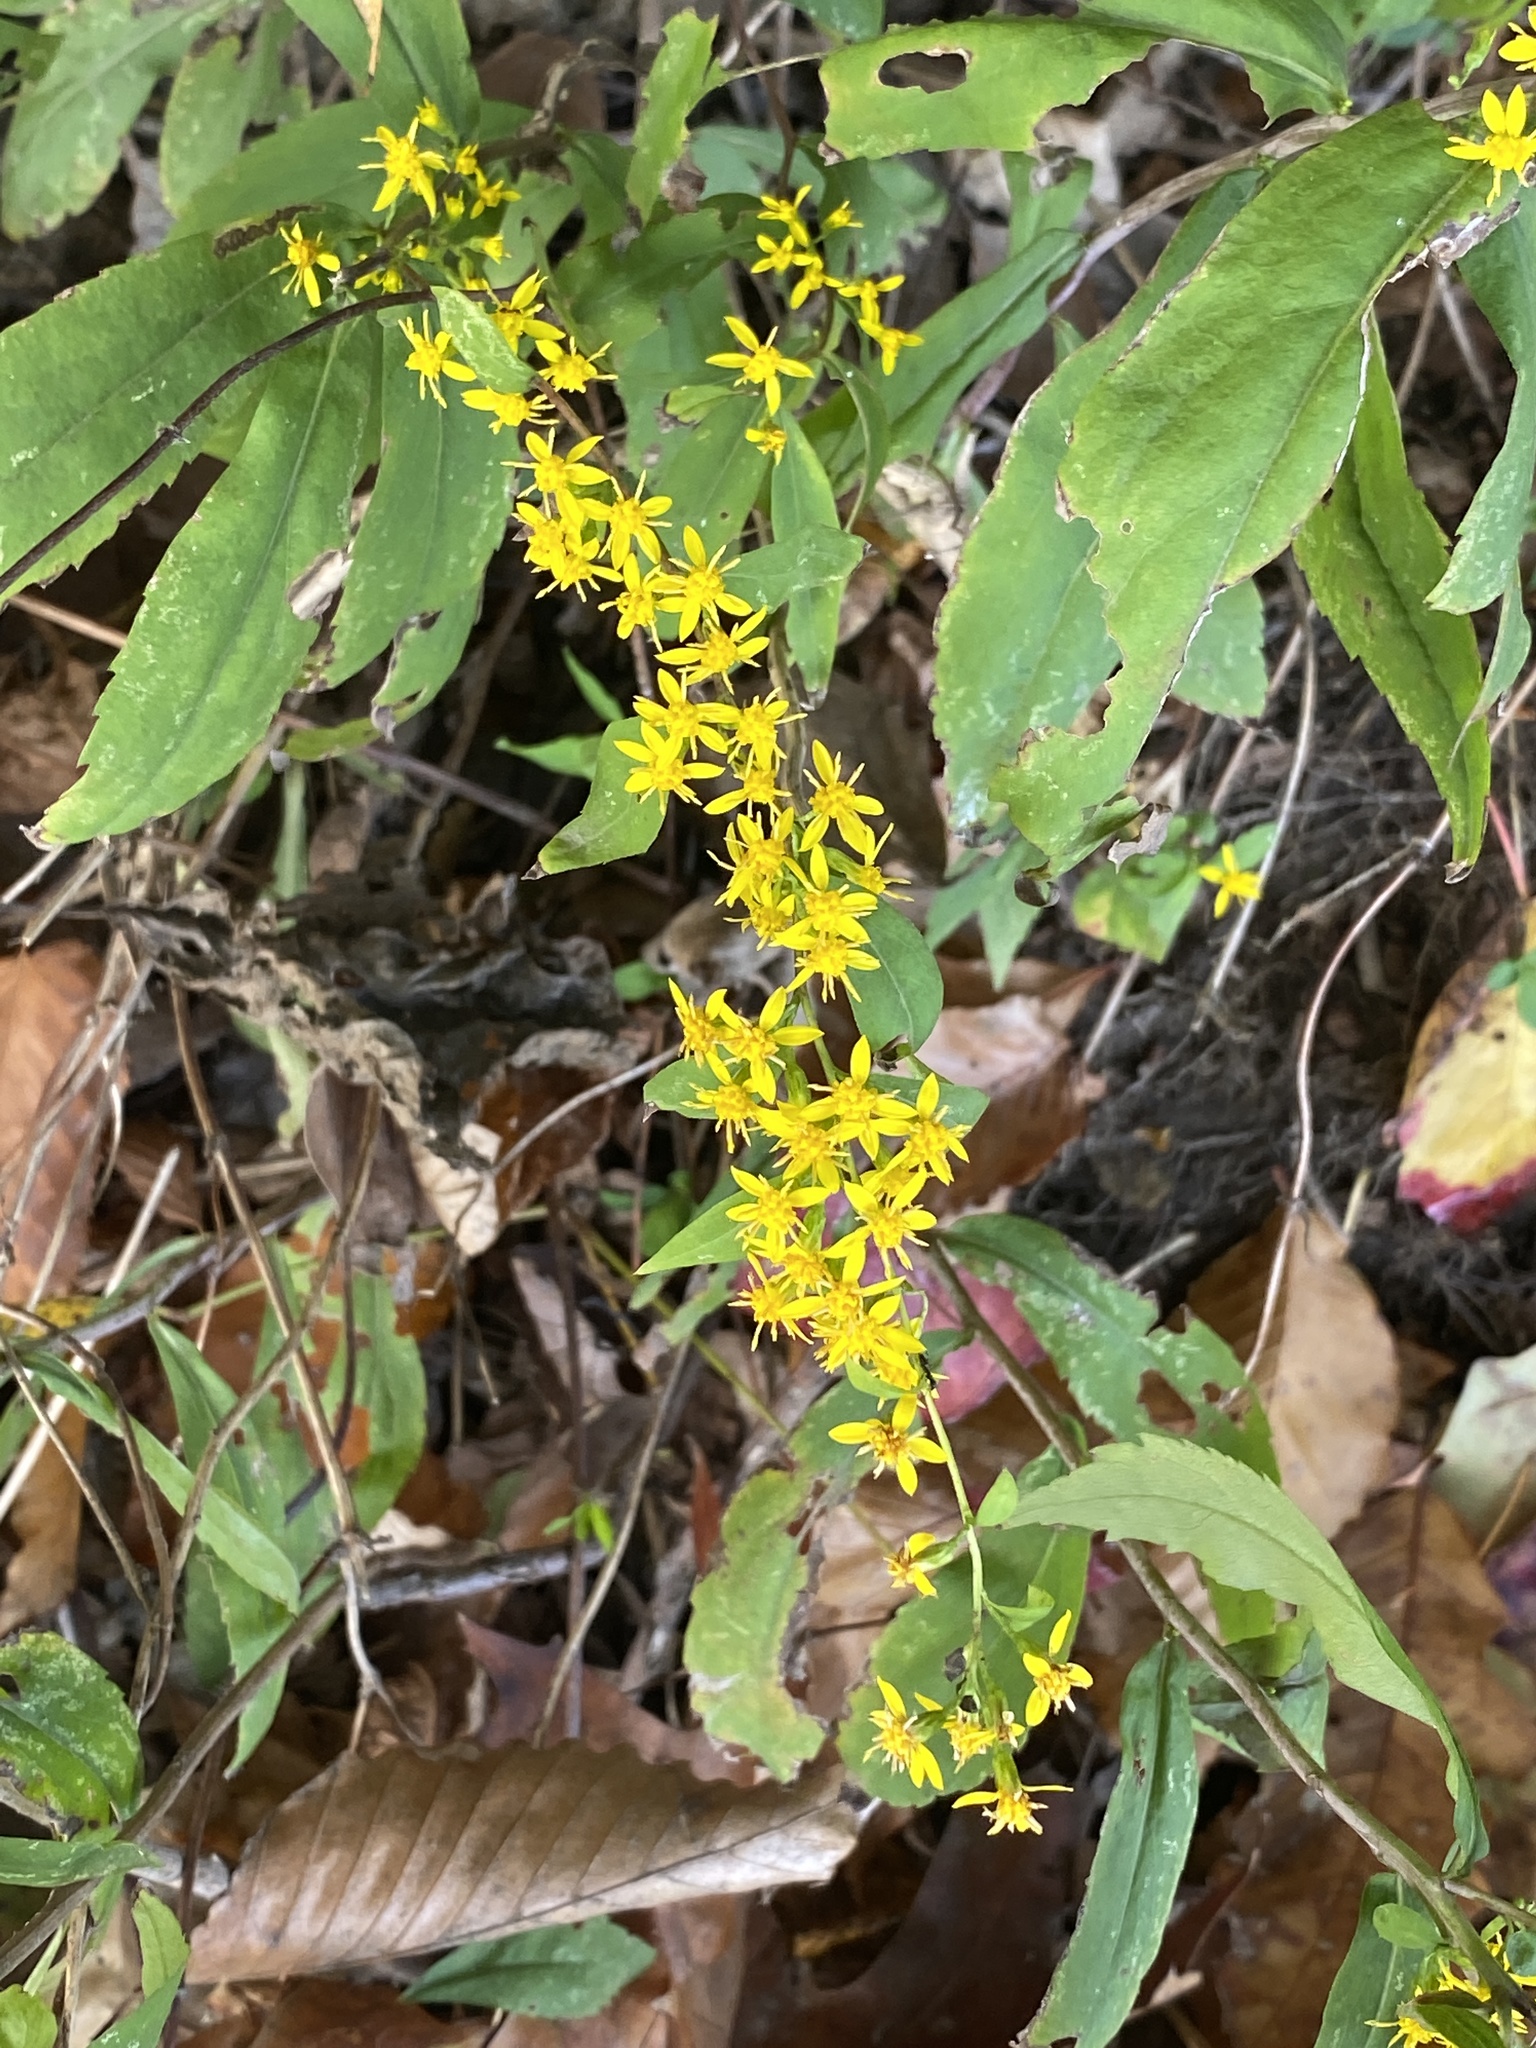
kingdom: Plantae
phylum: Tracheophyta
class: Magnoliopsida
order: Asterales
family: Asteraceae
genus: Solidago
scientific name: Solidago caesia
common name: Woodland goldenrod
